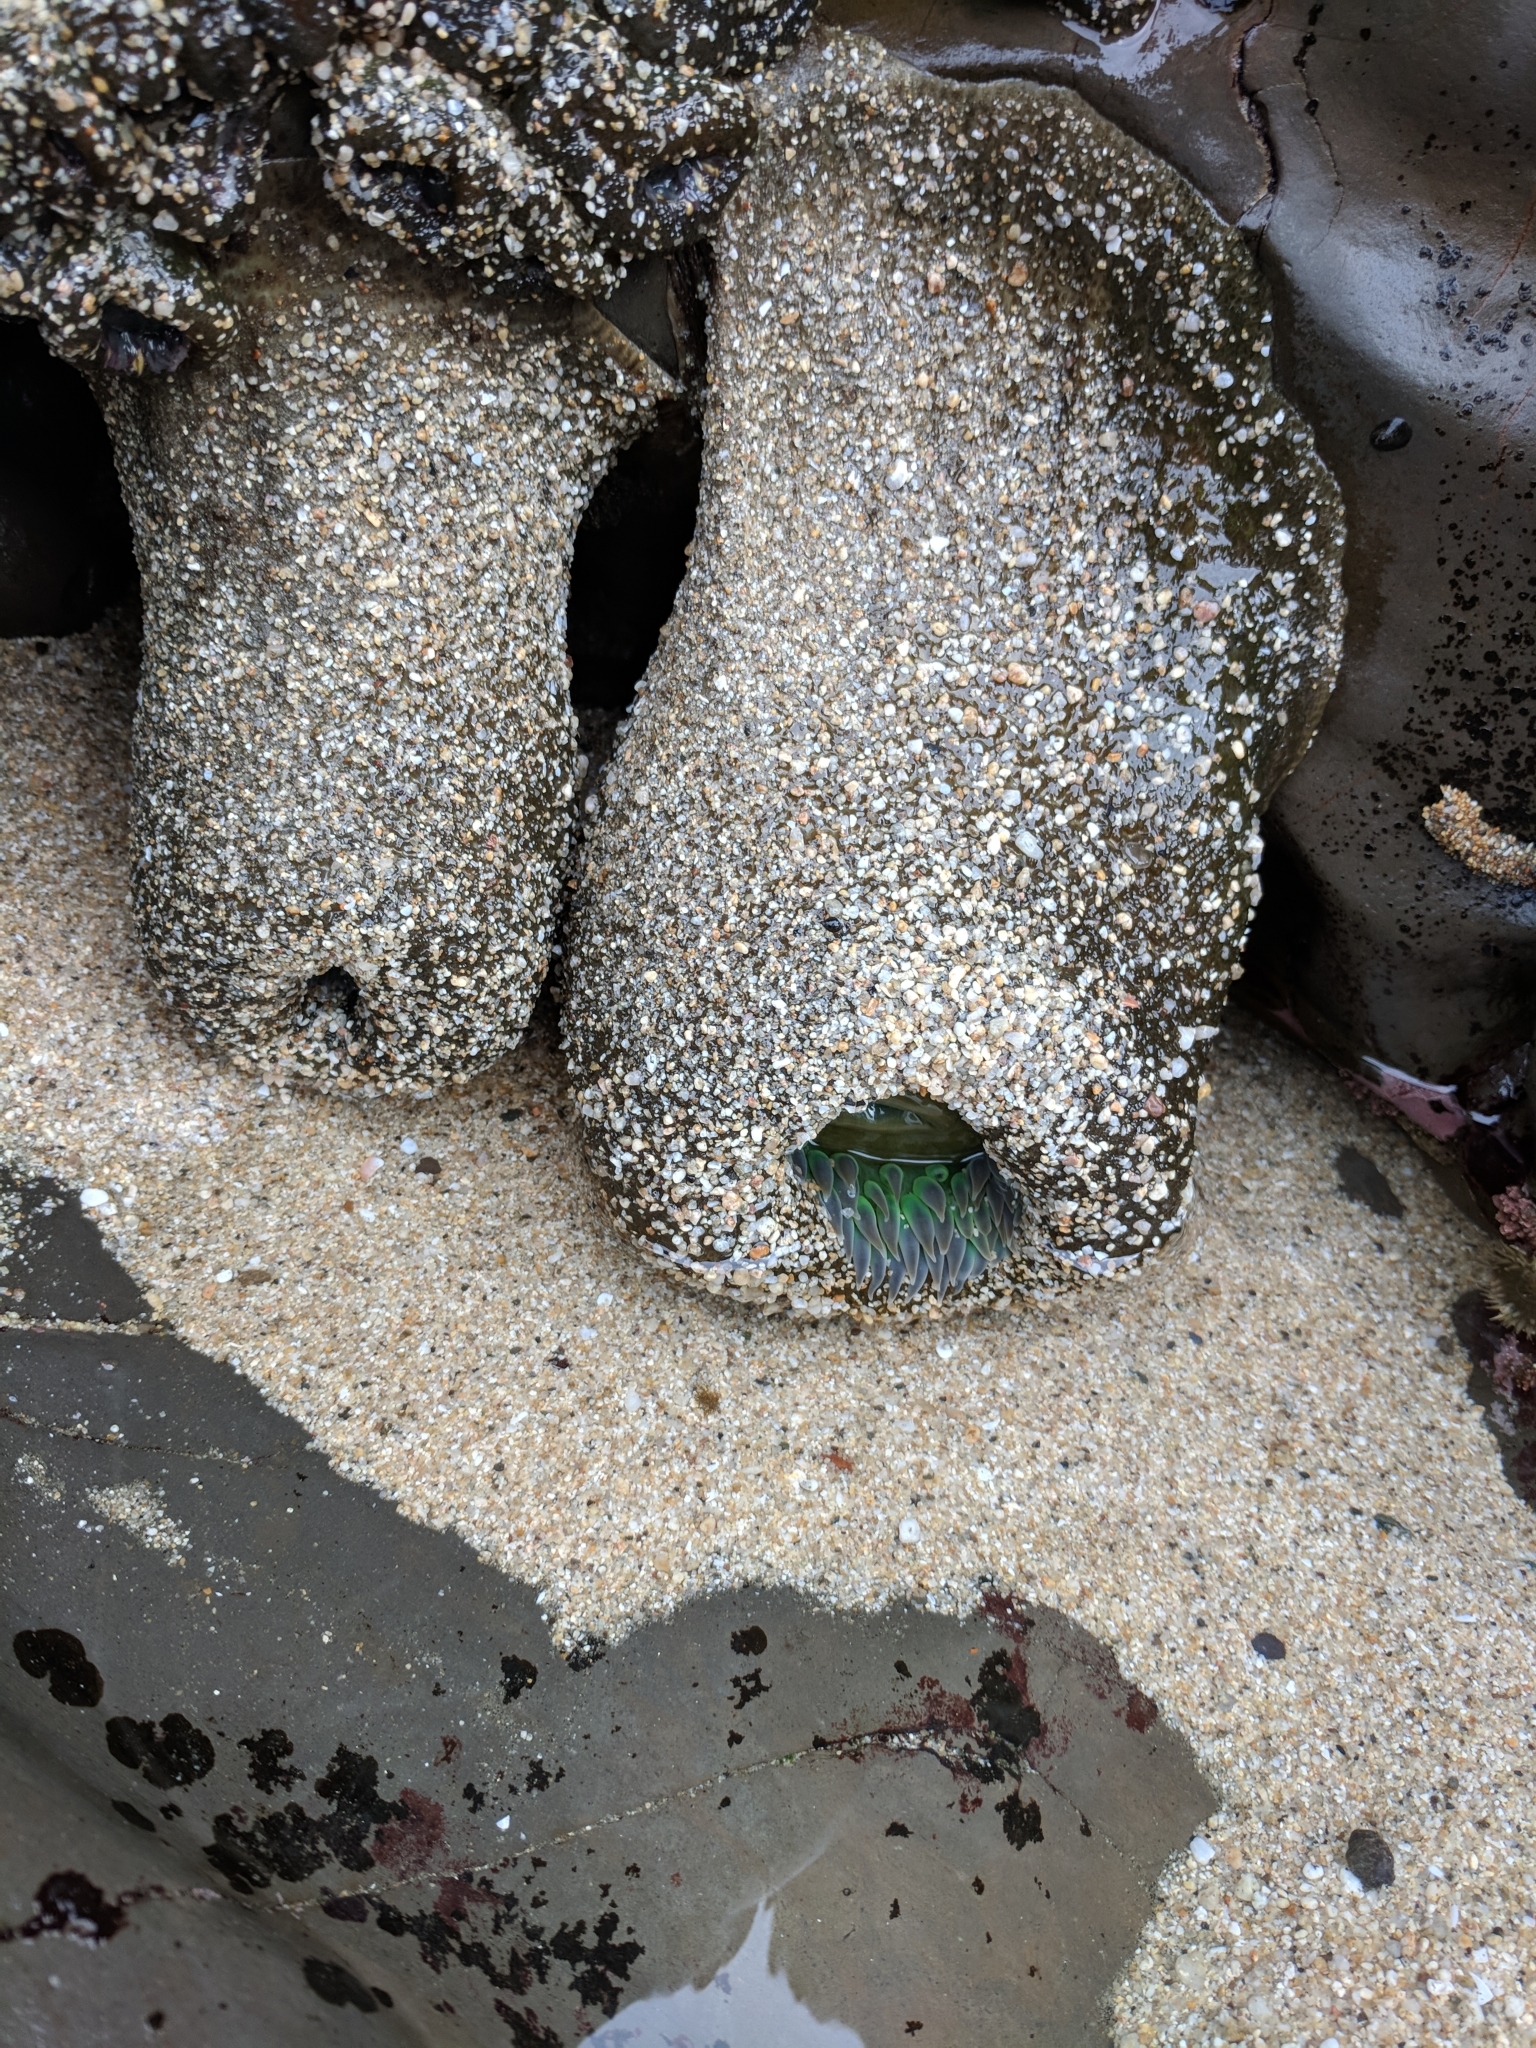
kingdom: Animalia
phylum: Cnidaria
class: Anthozoa
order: Actiniaria
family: Actiniidae
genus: Anthopleura
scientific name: Anthopleura xanthogrammica
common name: Giant green anemone
